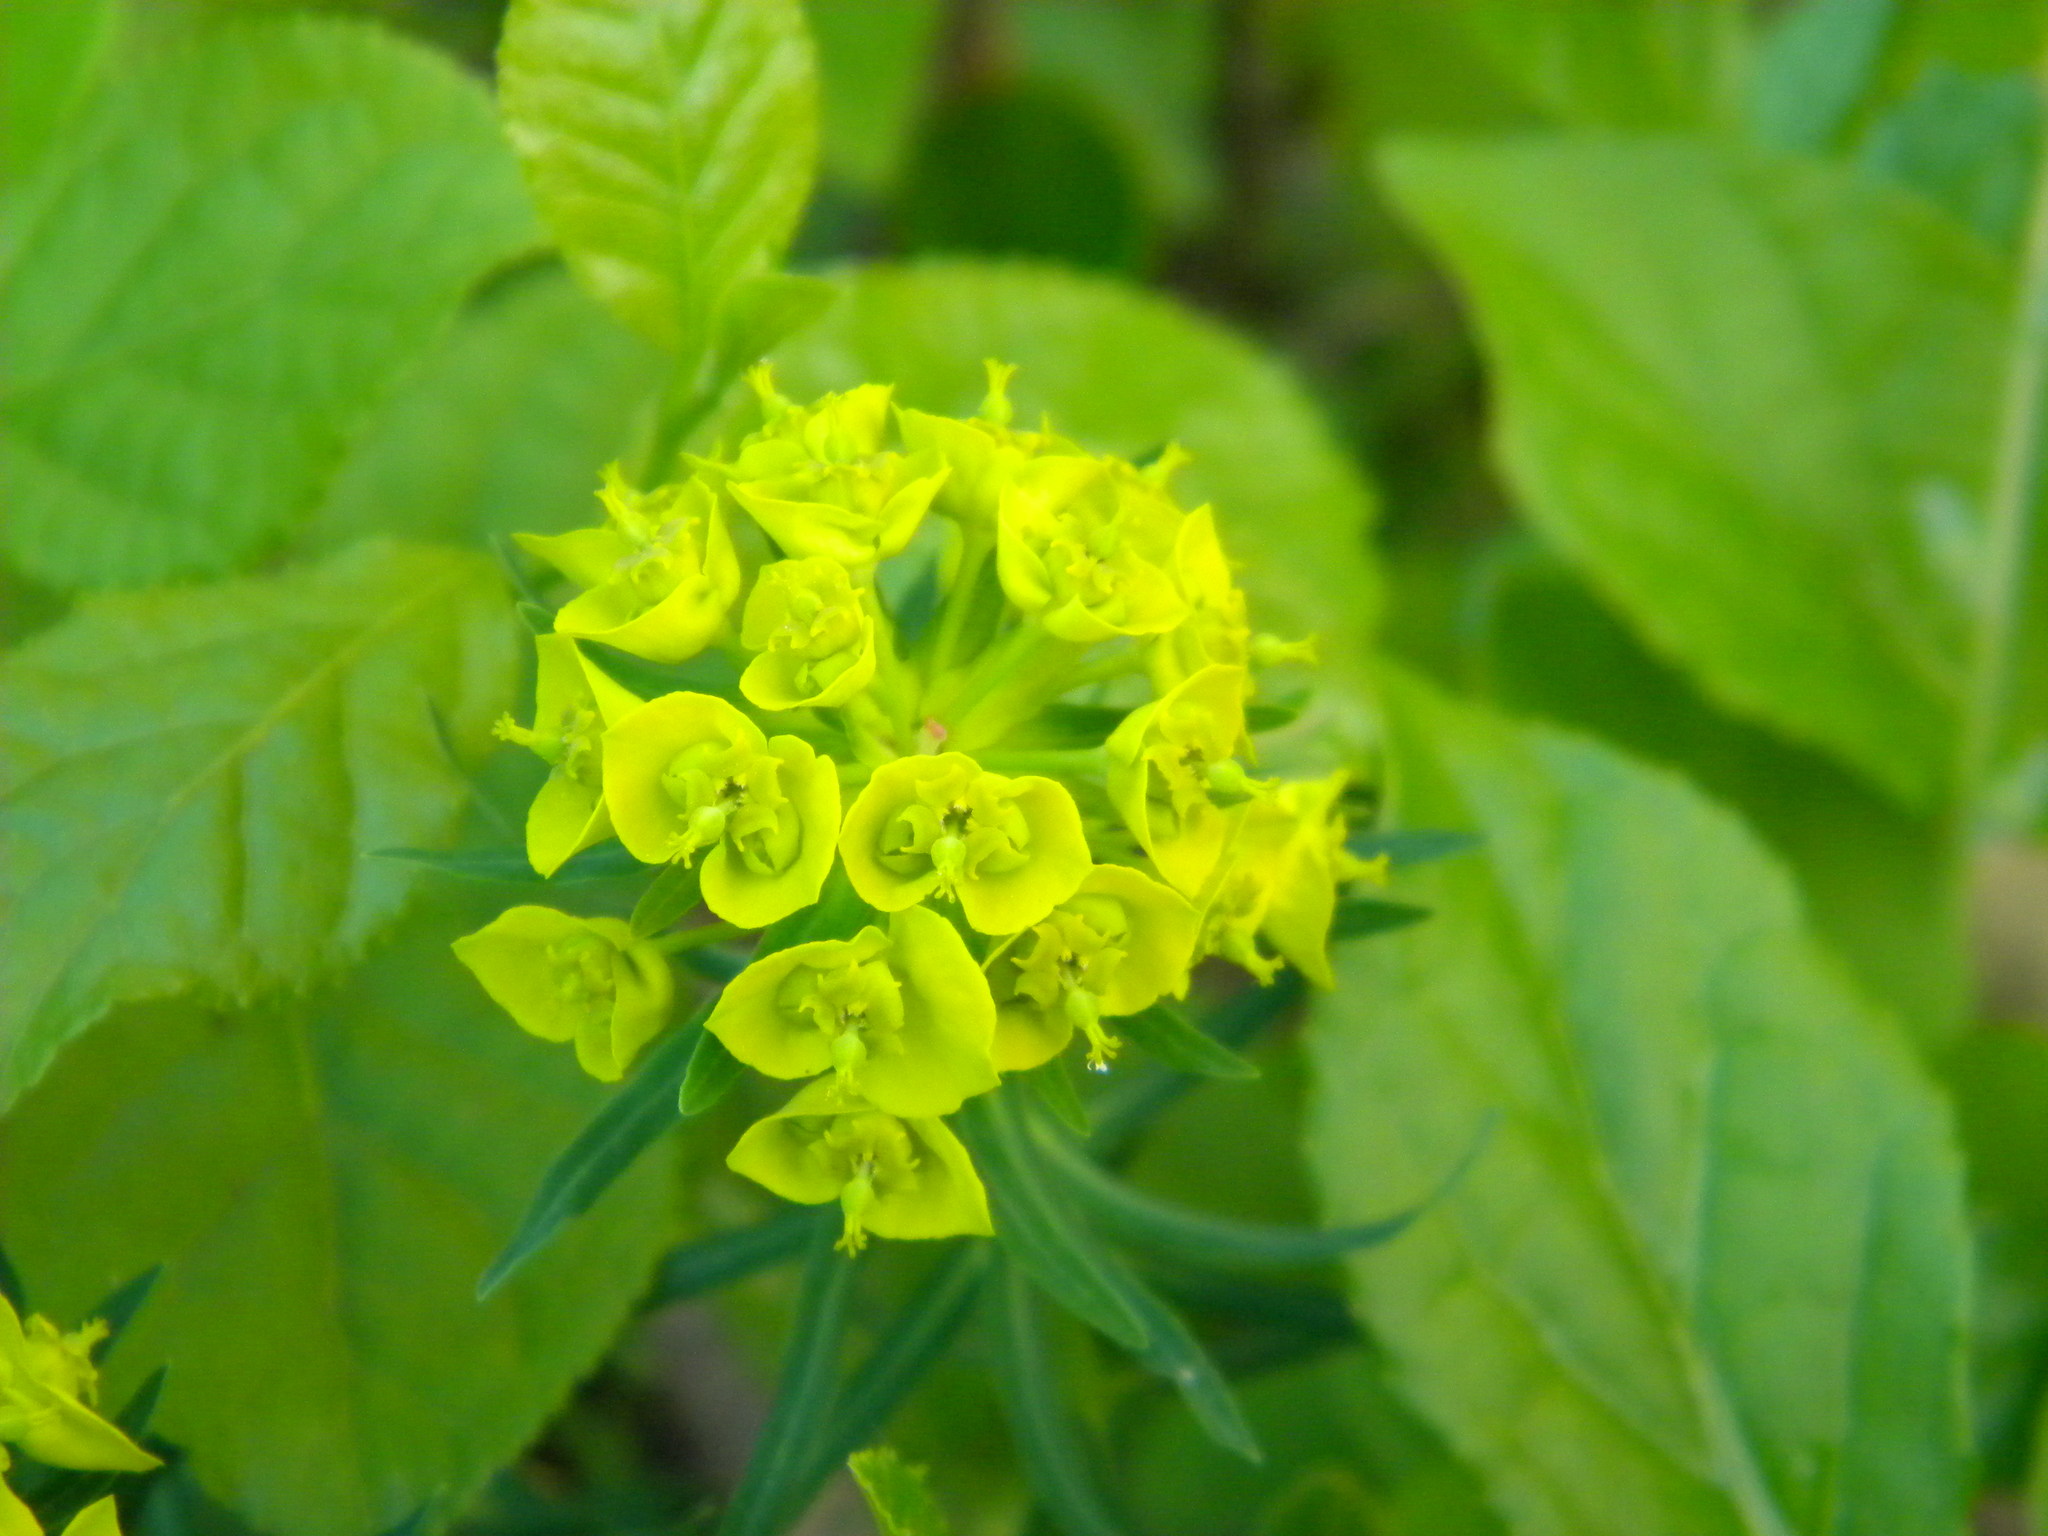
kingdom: Plantae
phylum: Tracheophyta
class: Magnoliopsida
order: Malpighiales
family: Euphorbiaceae
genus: Euphorbia
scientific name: Euphorbia cyparissias
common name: Cypress spurge
